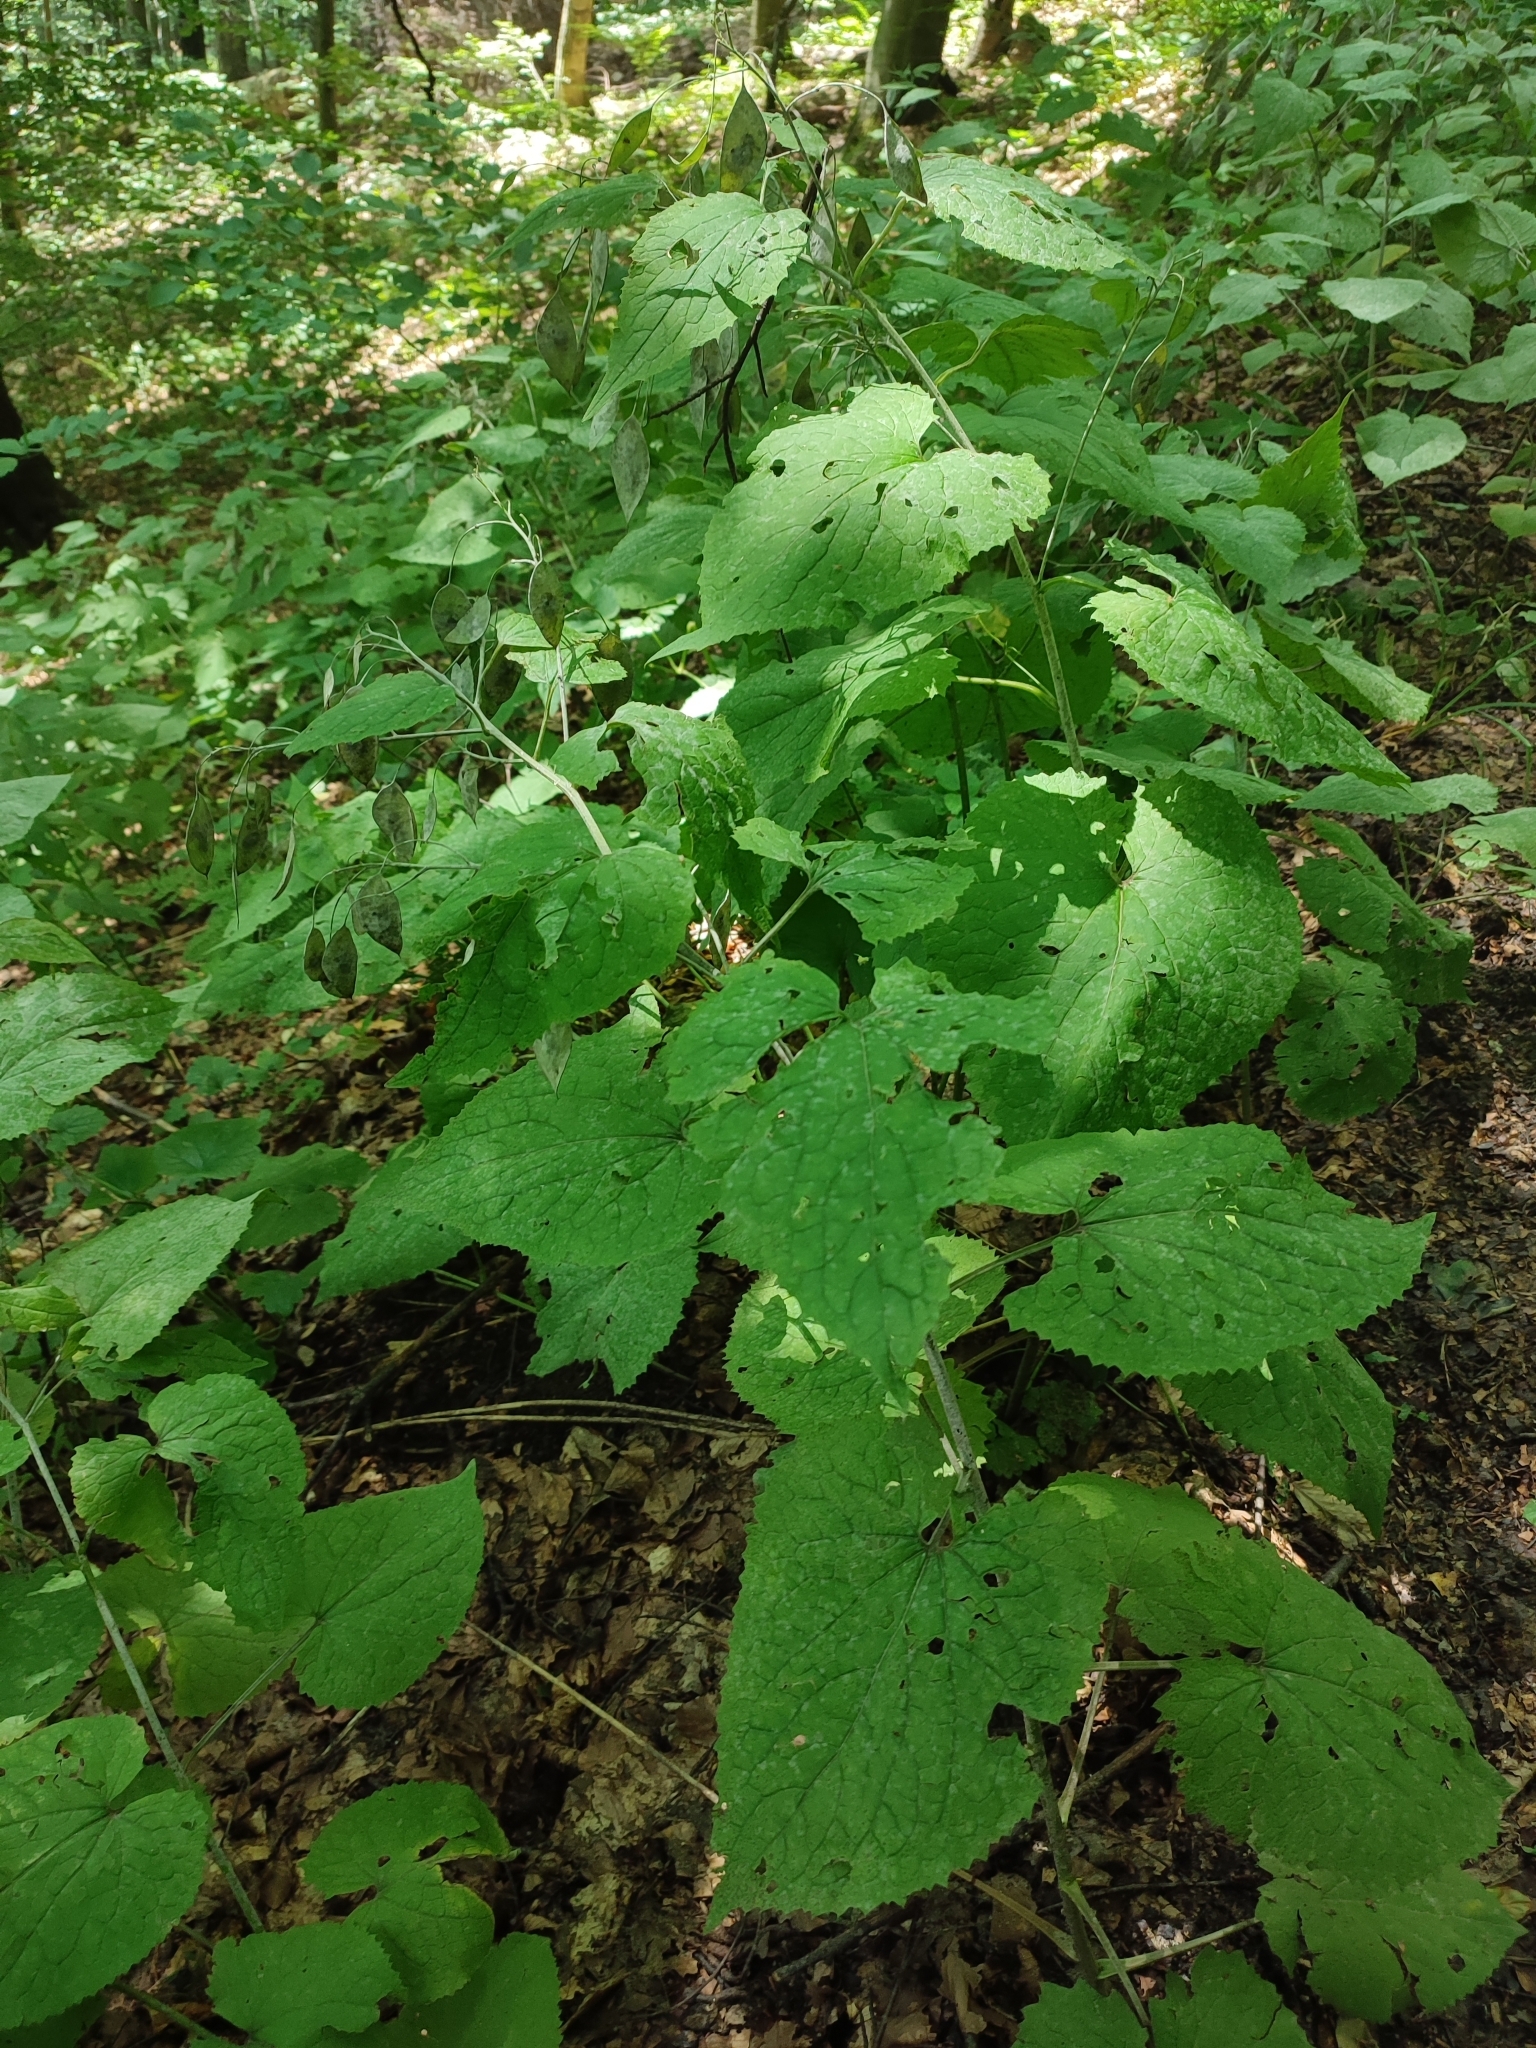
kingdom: Plantae
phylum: Tracheophyta
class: Magnoliopsida
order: Brassicales
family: Brassicaceae
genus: Lunaria
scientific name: Lunaria rediviva
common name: Perennial honesty
